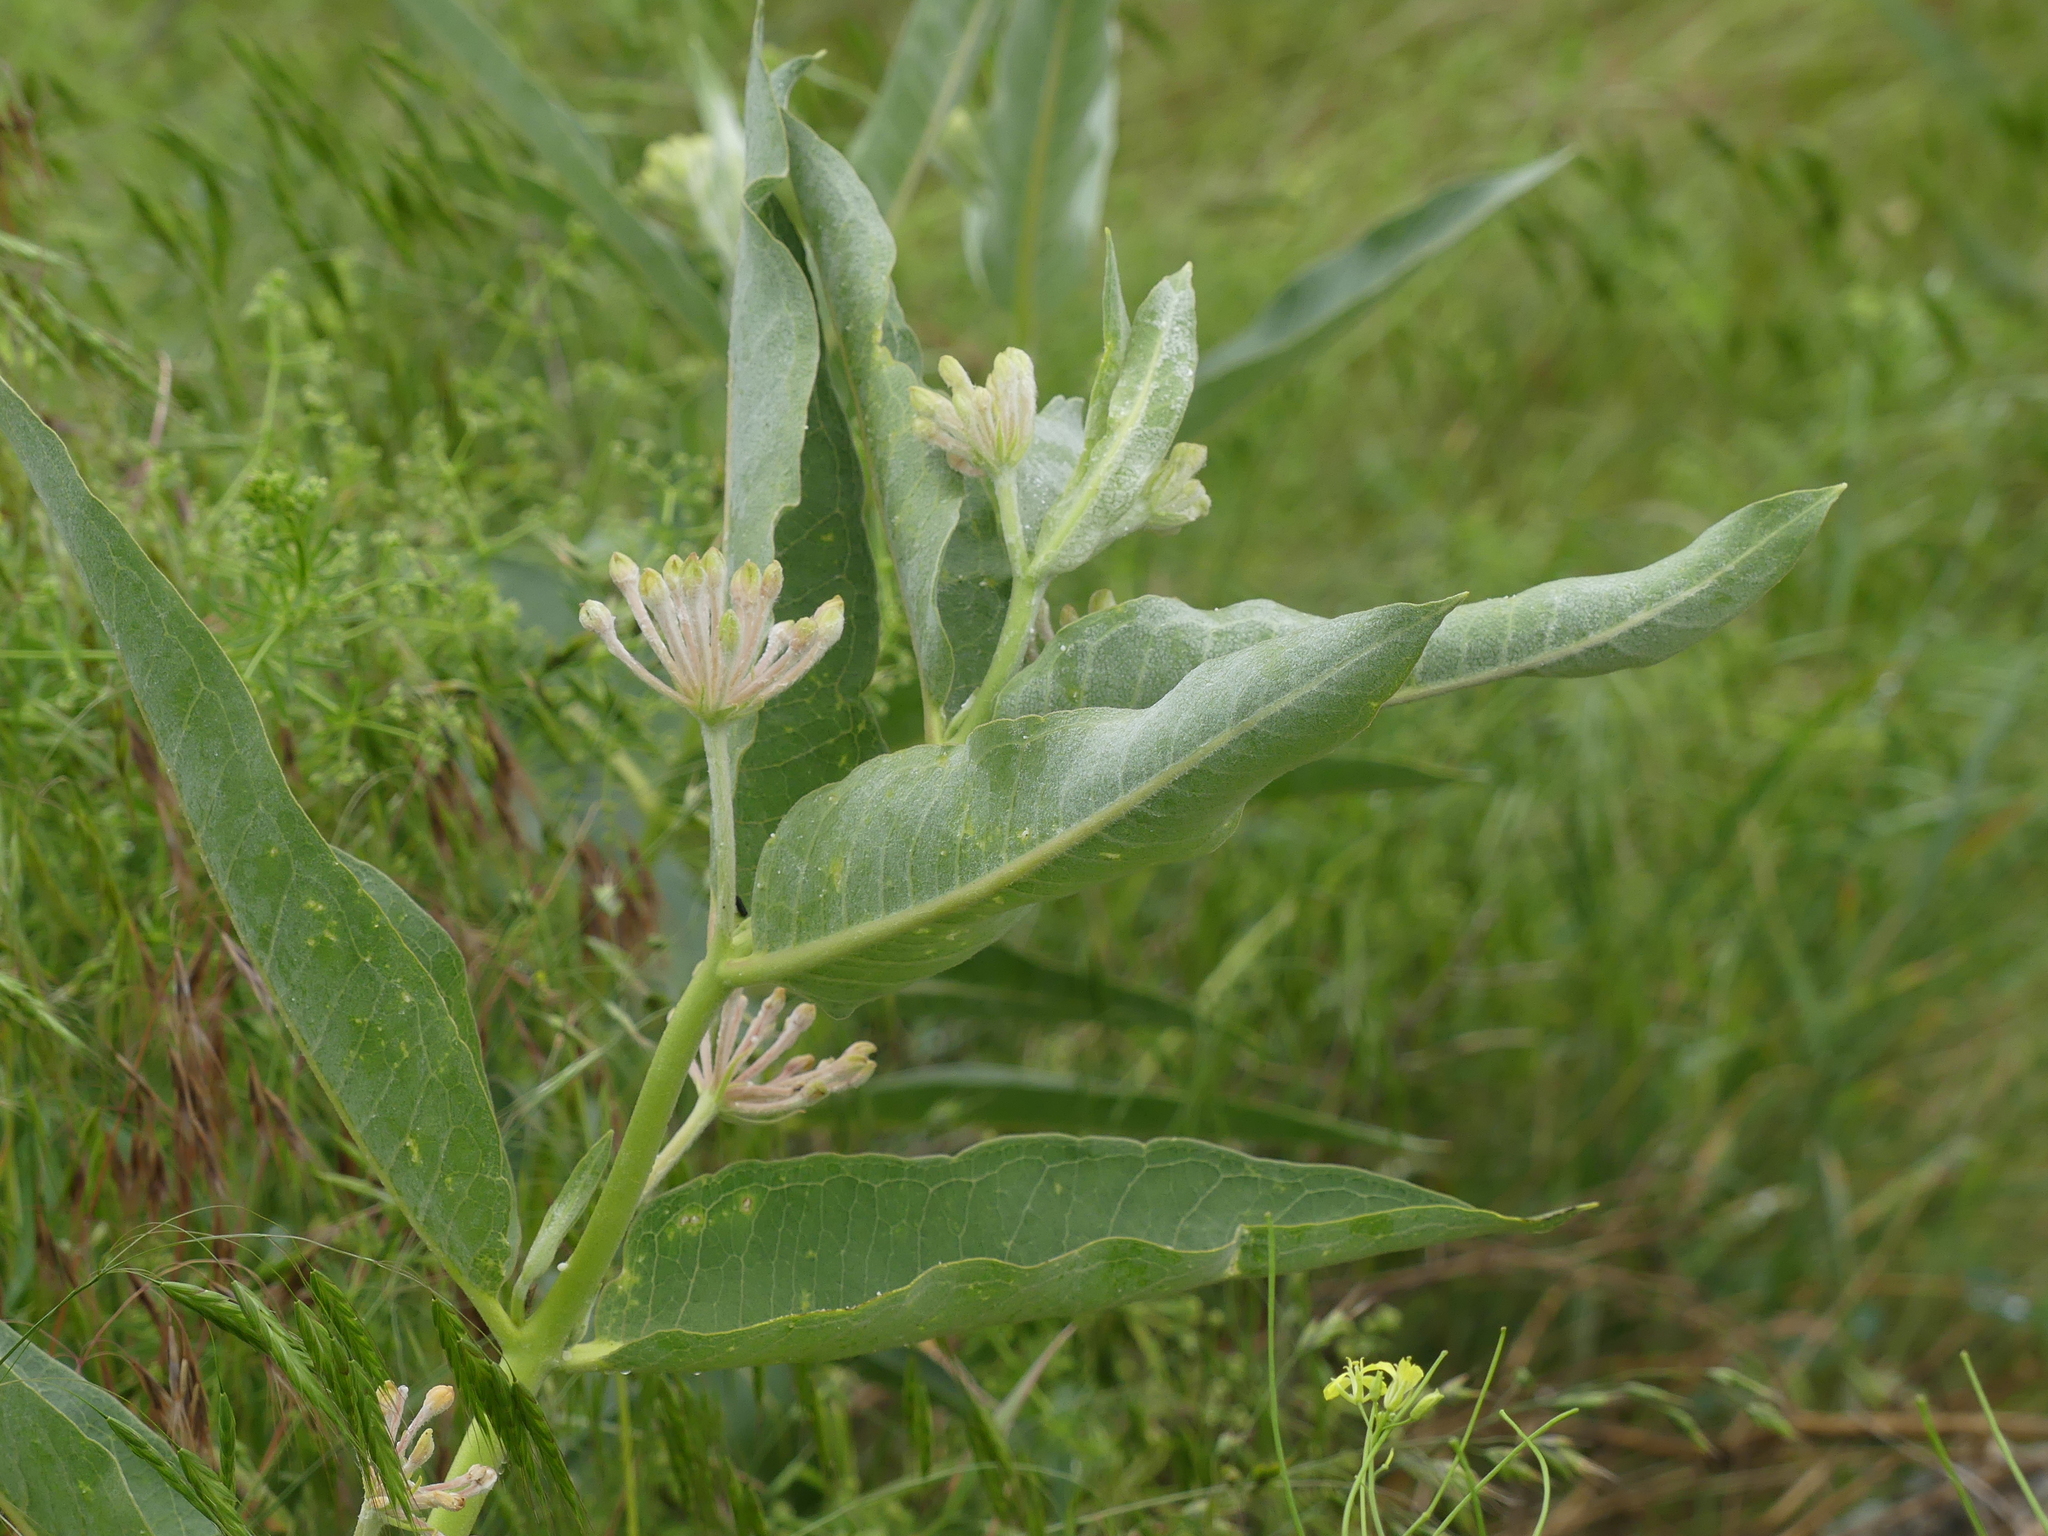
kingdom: Plantae
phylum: Tracheophyta
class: Magnoliopsida
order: Gentianales
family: Apocynaceae
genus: Asclepias
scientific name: Asclepias speciosa
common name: Showy milkweed
